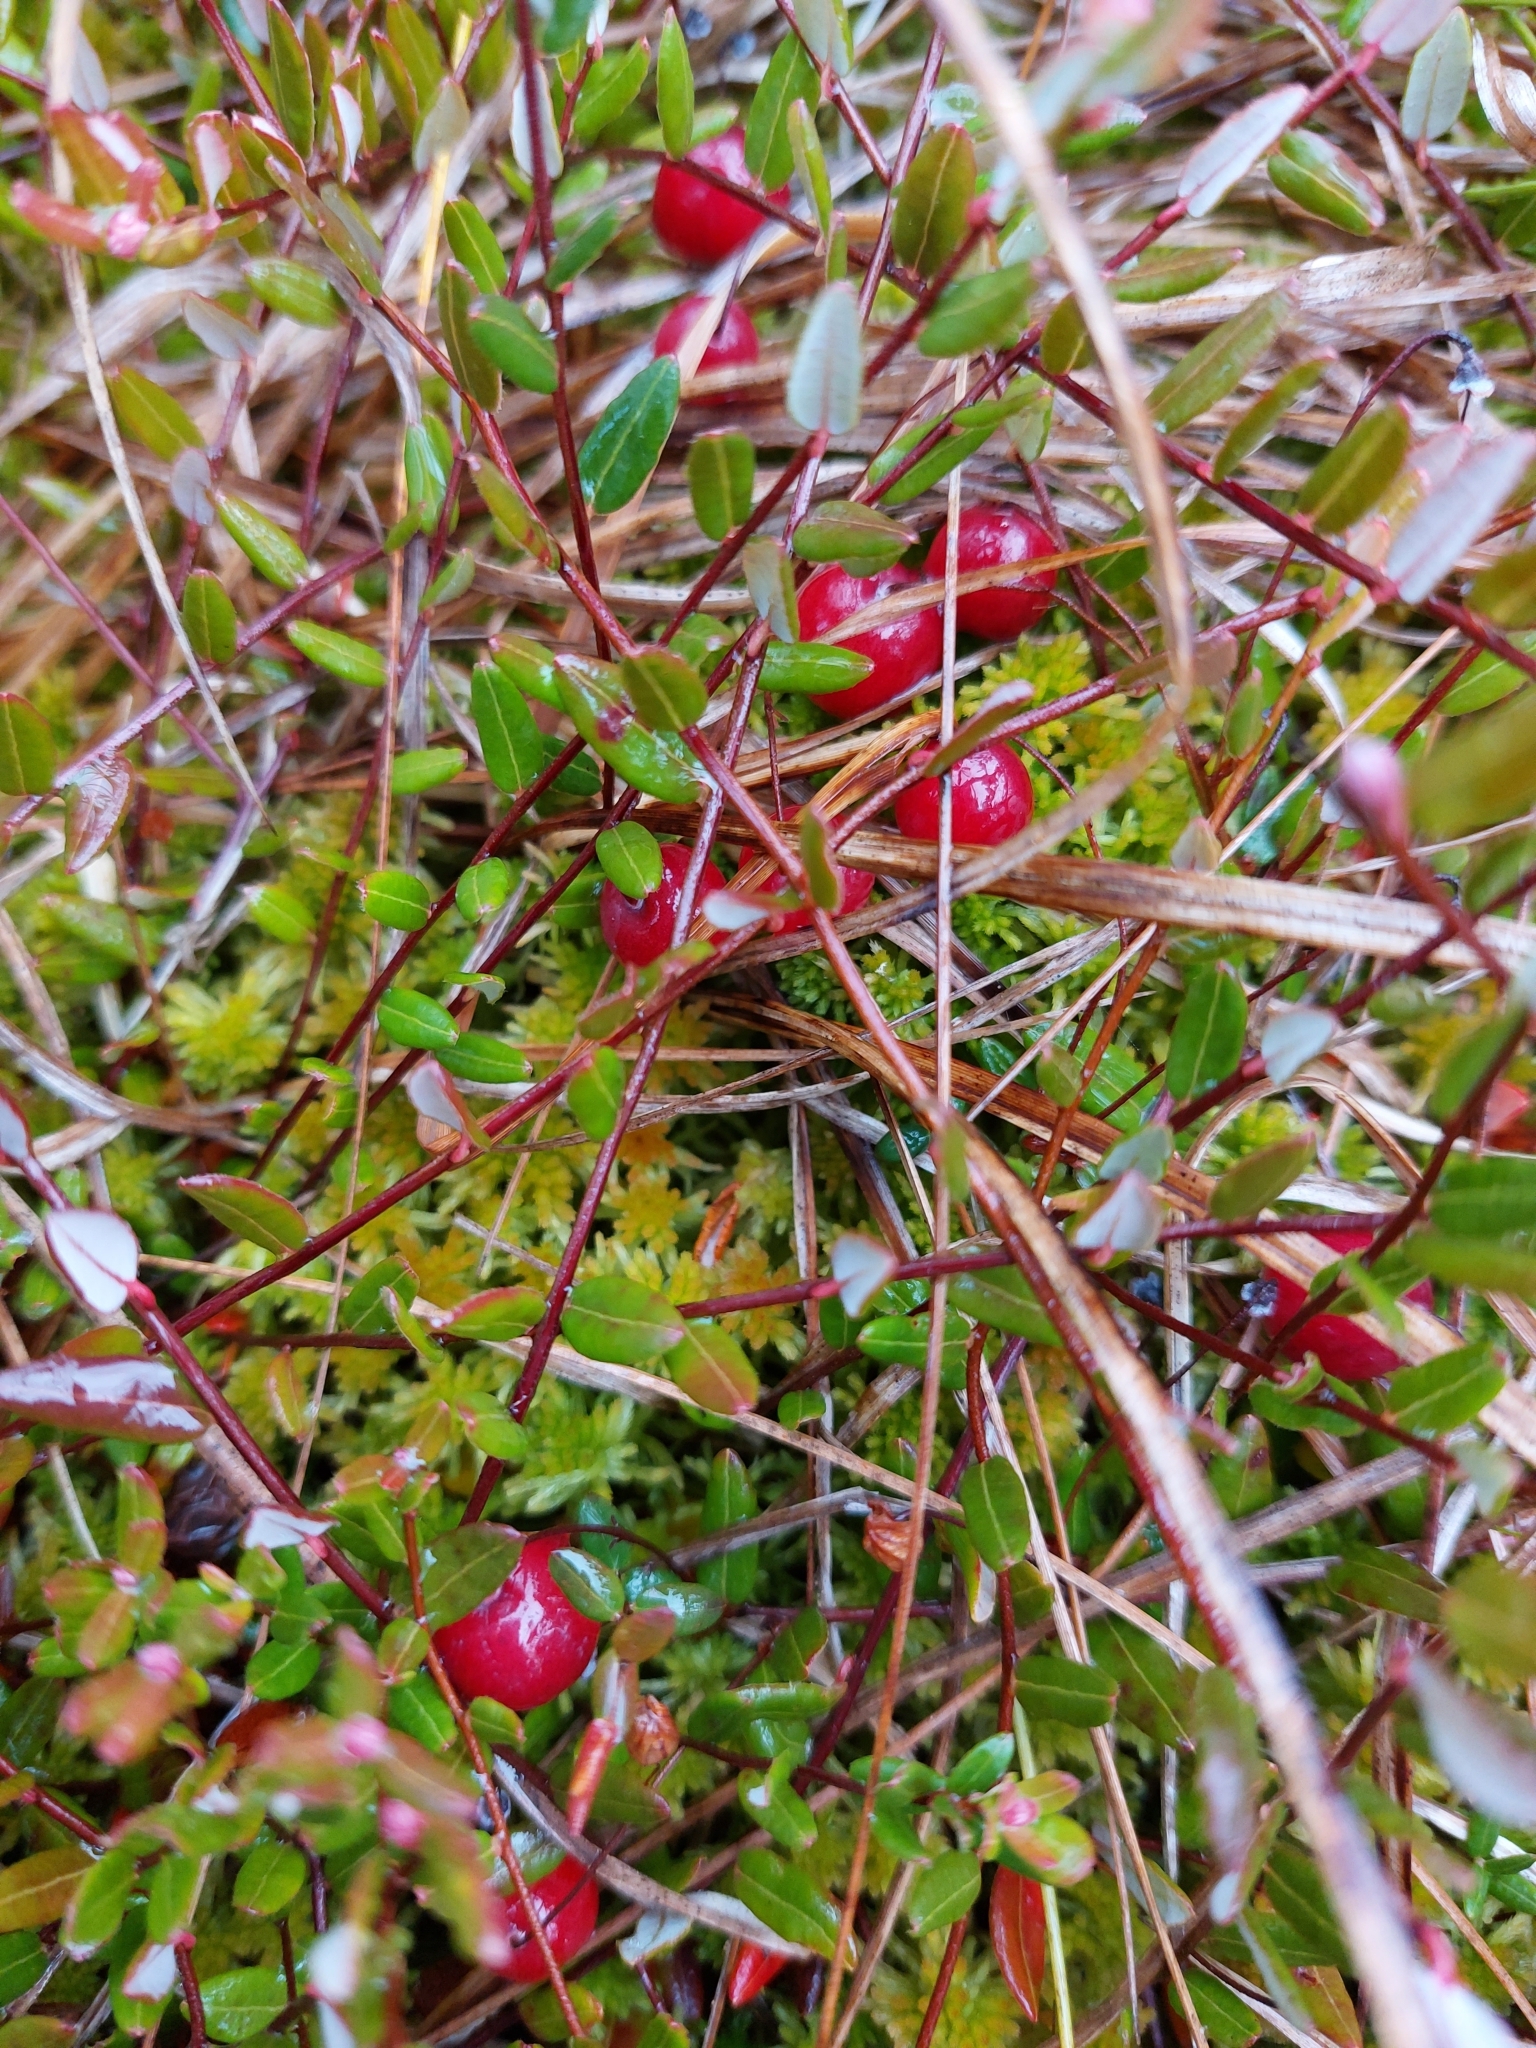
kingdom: Plantae
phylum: Tracheophyta
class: Magnoliopsida
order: Ericales
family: Ericaceae
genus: Vaccinium
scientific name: Vaccinium oxycoccos
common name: Cranberry
